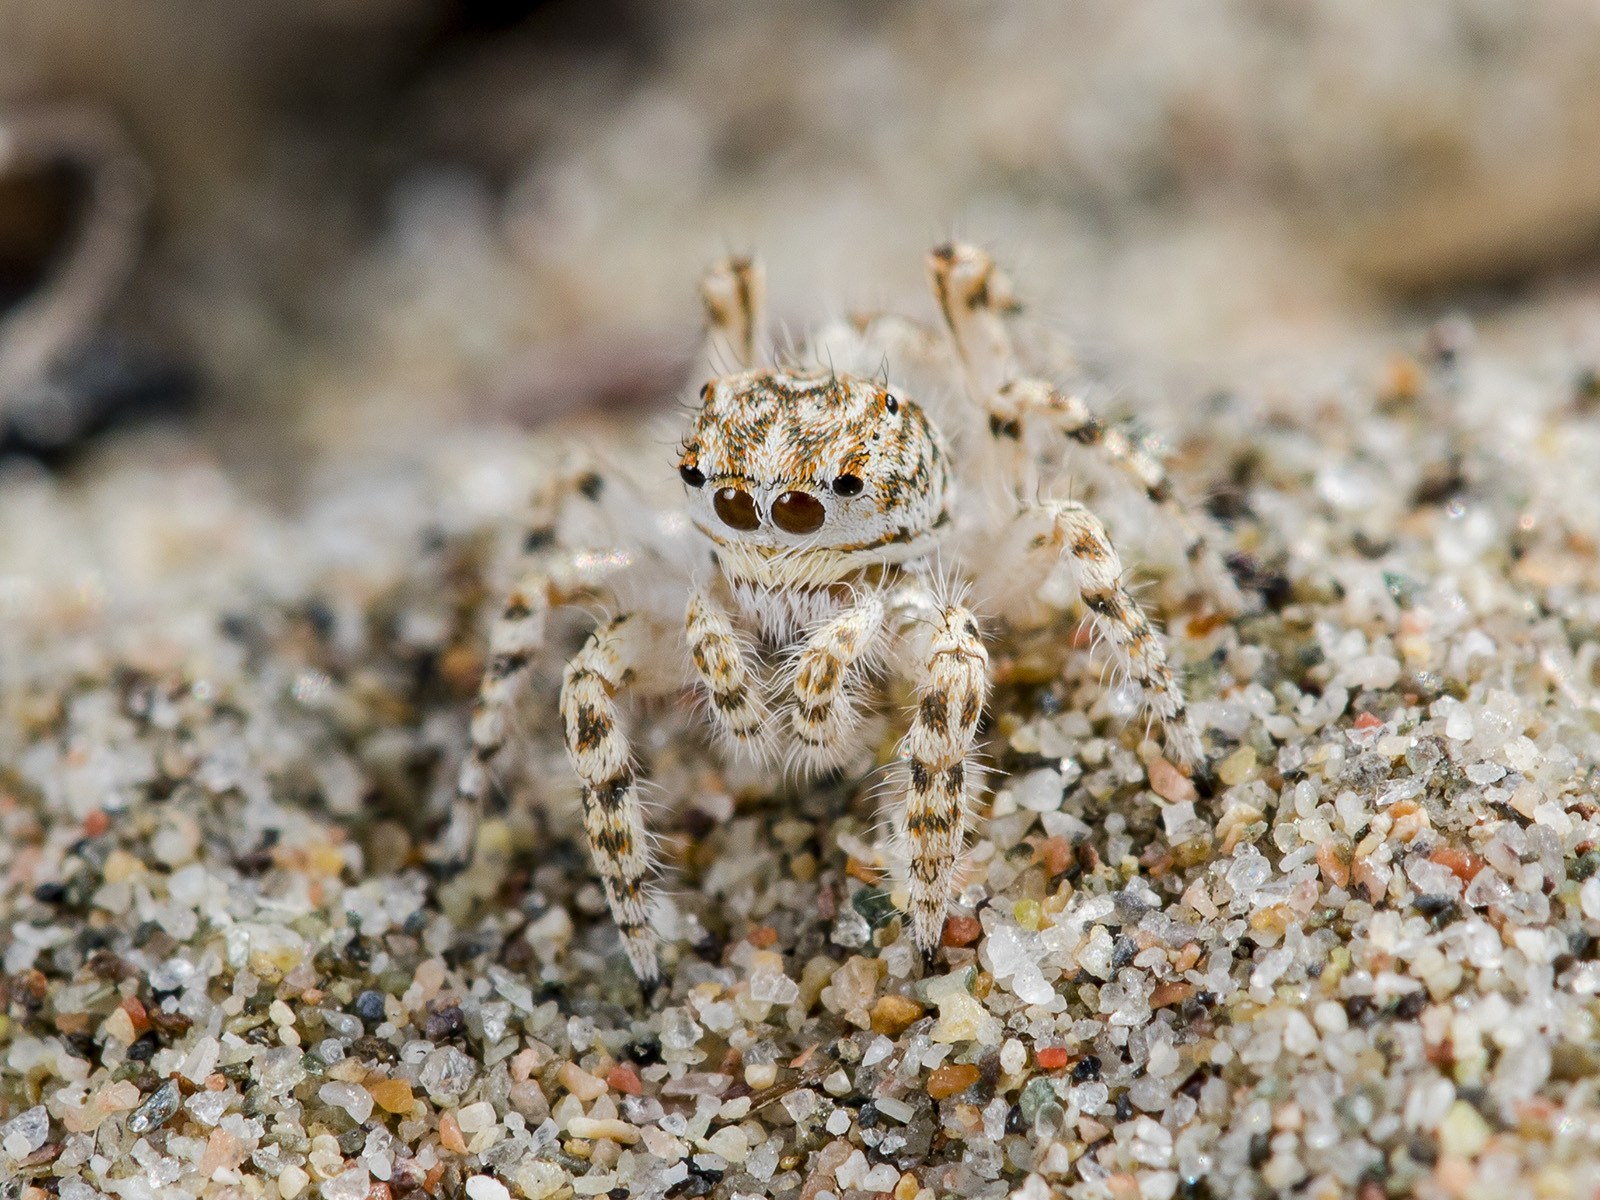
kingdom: Animalia
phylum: Arthropoda
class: Arachnida
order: Araneae
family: Salticidae
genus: Yllenus
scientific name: Yllenus turkestanicus
